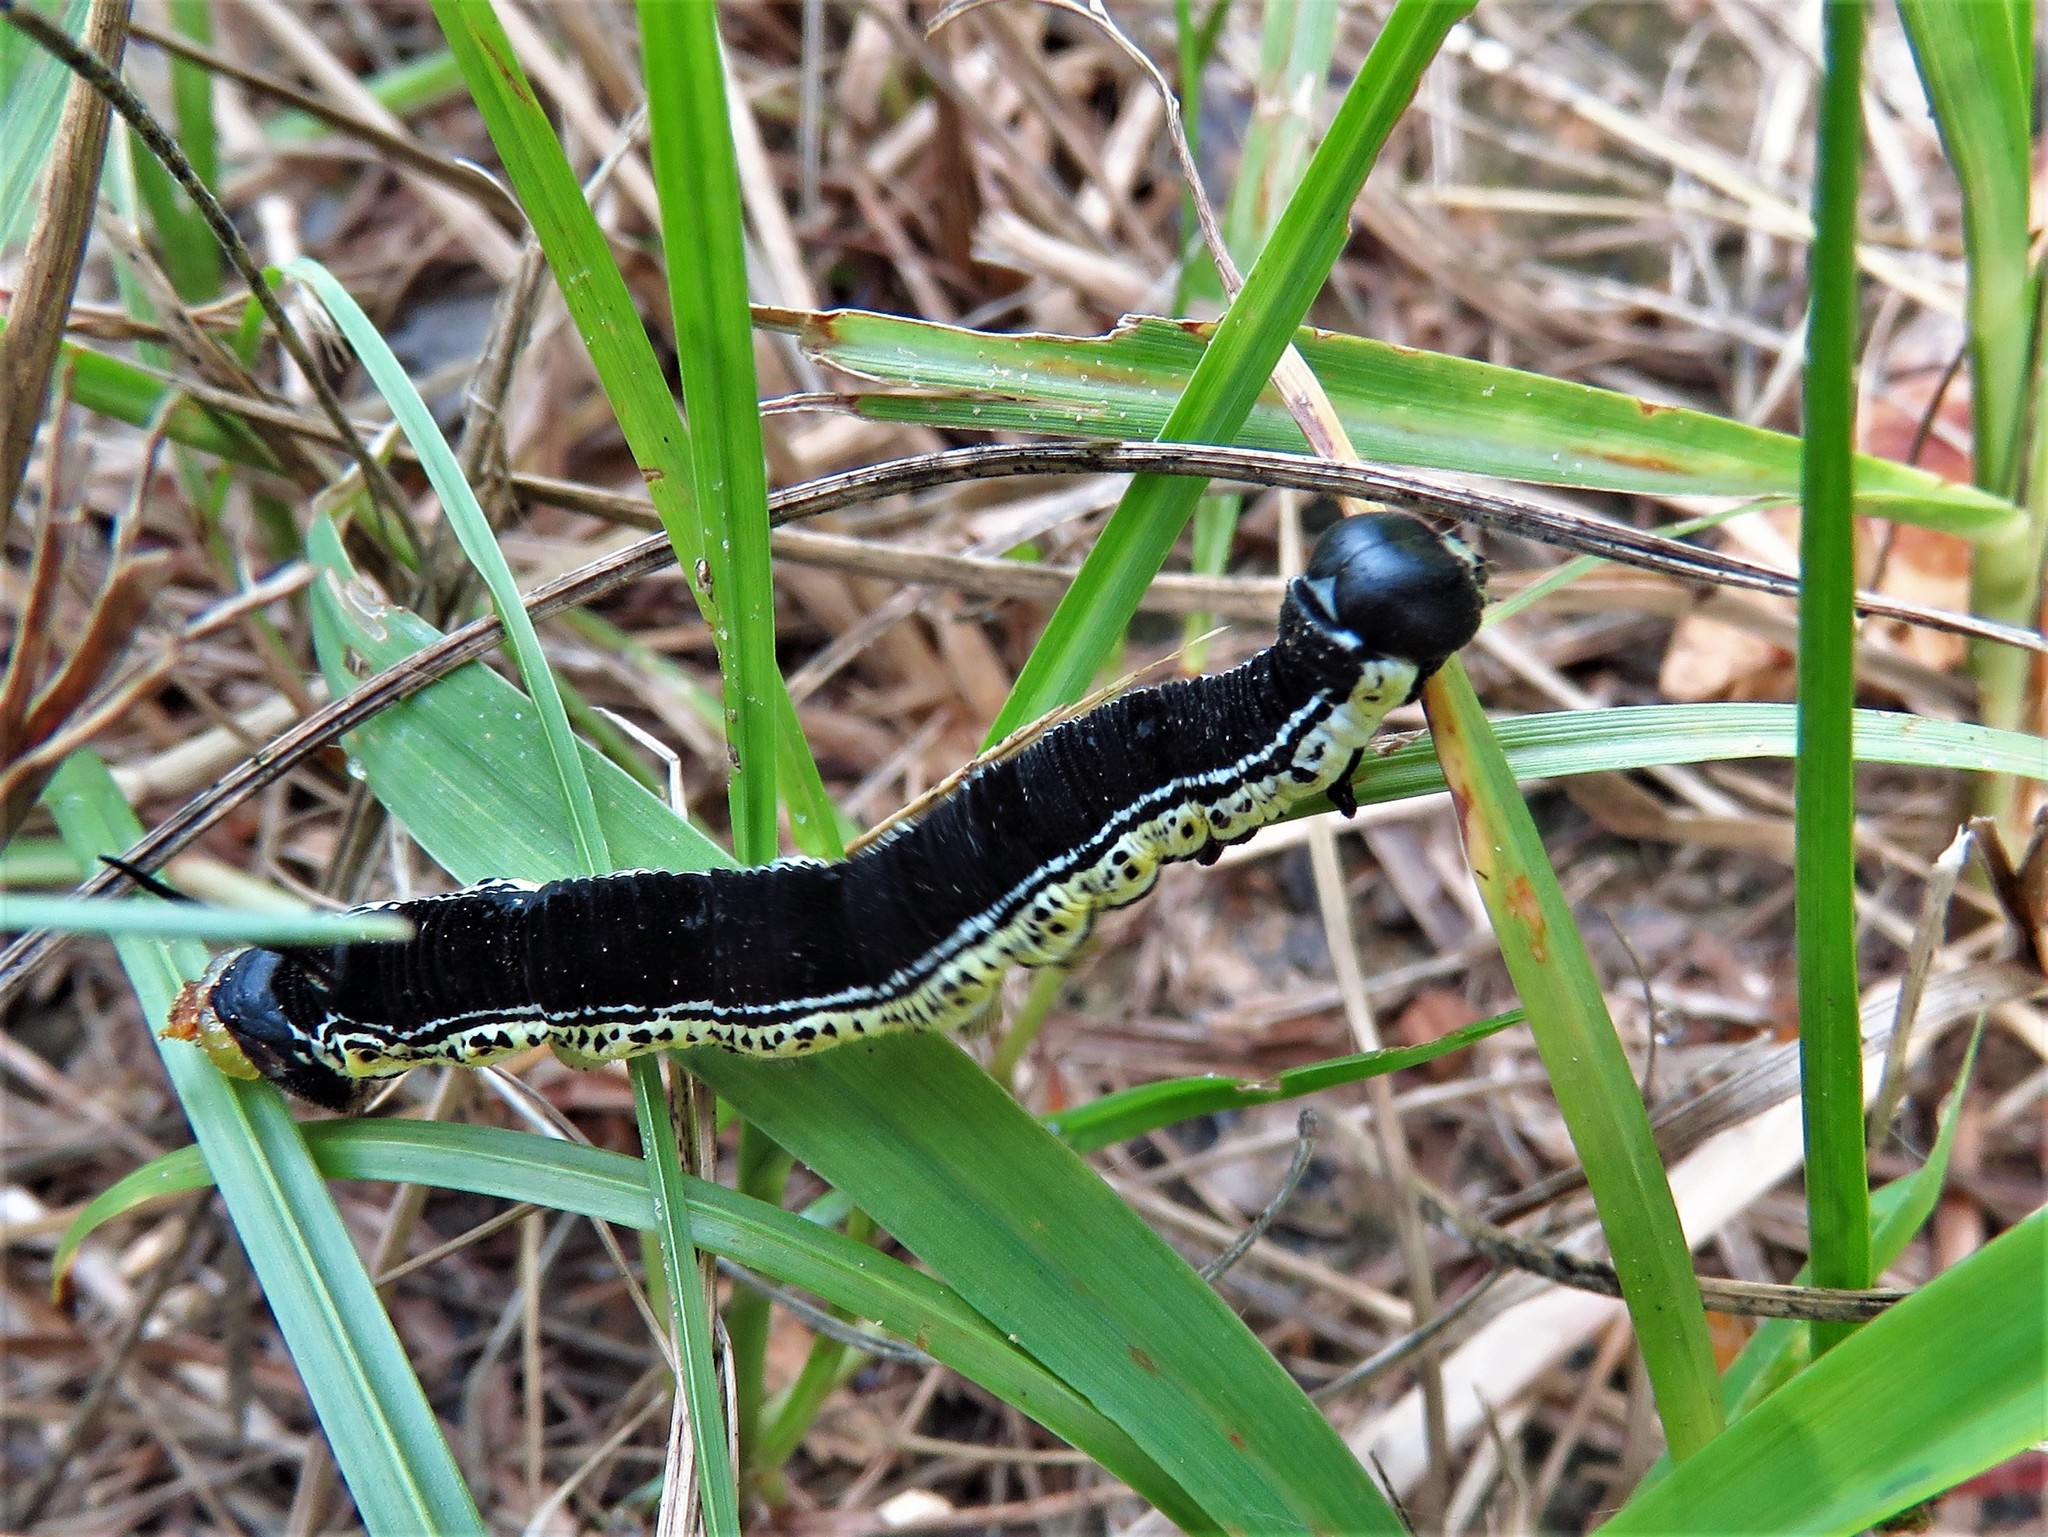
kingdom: Animalia
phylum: Arthropoda
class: Insecta
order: Lepidoptera
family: Sphingidae
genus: Ceratomia
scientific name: Ceratomia catalpae
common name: Catalpa hornworm
